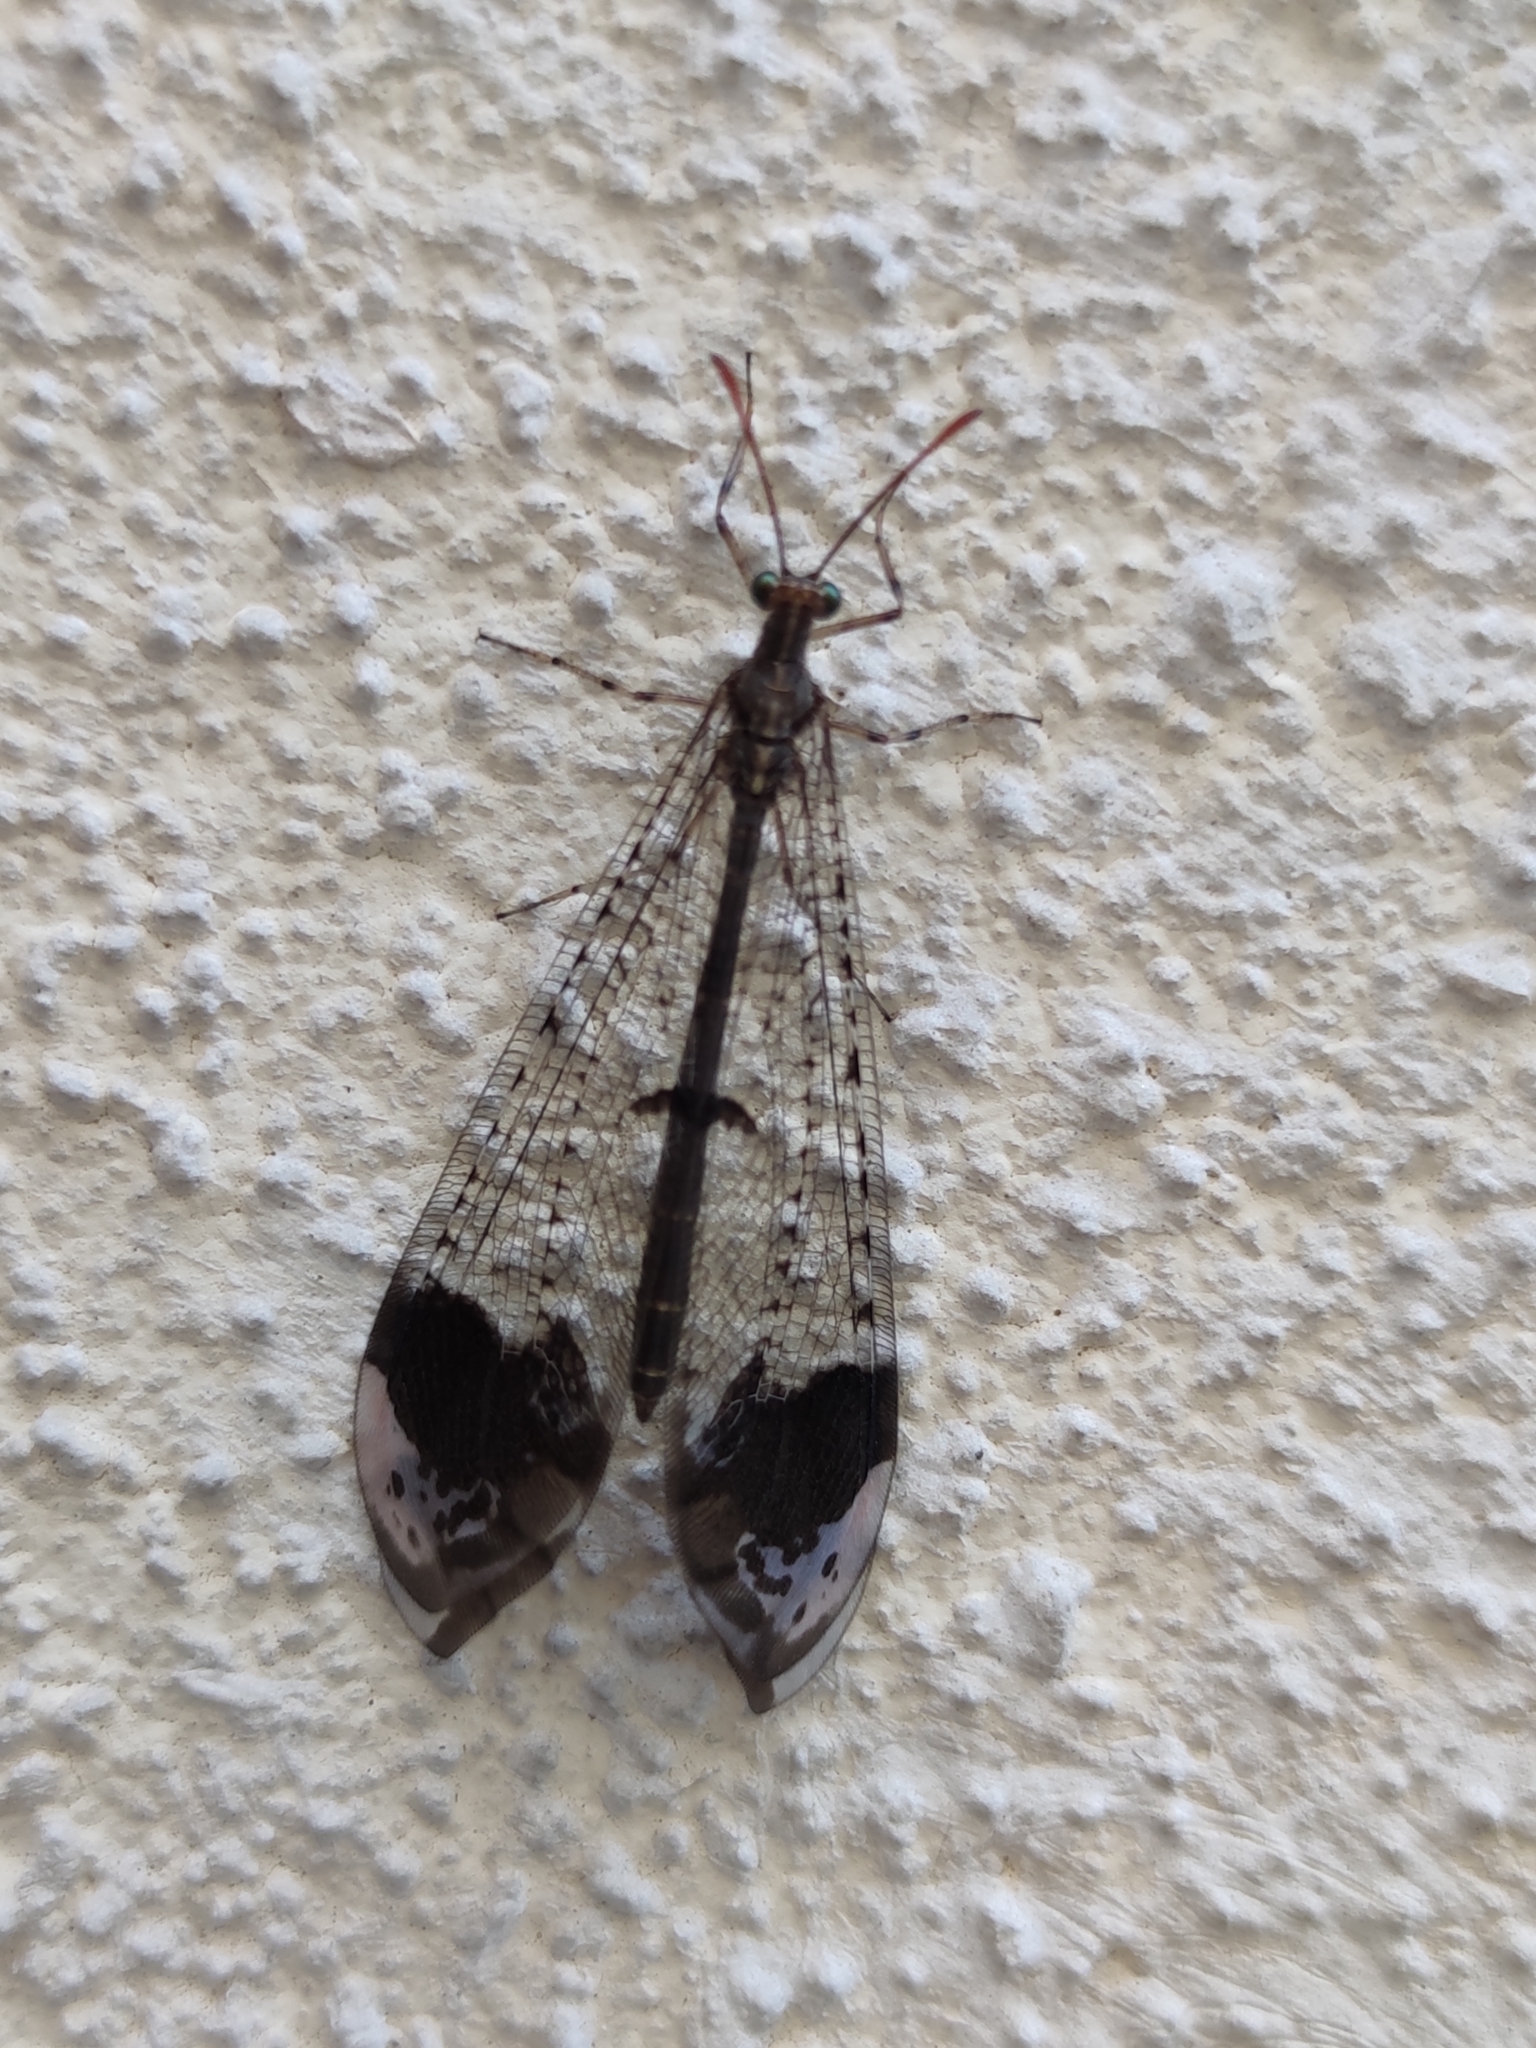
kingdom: Animalia
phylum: Arthropoda
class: Insecta
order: Neuroptera
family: Myrmeleontidae
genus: Glenurus
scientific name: Glenurus luniger
